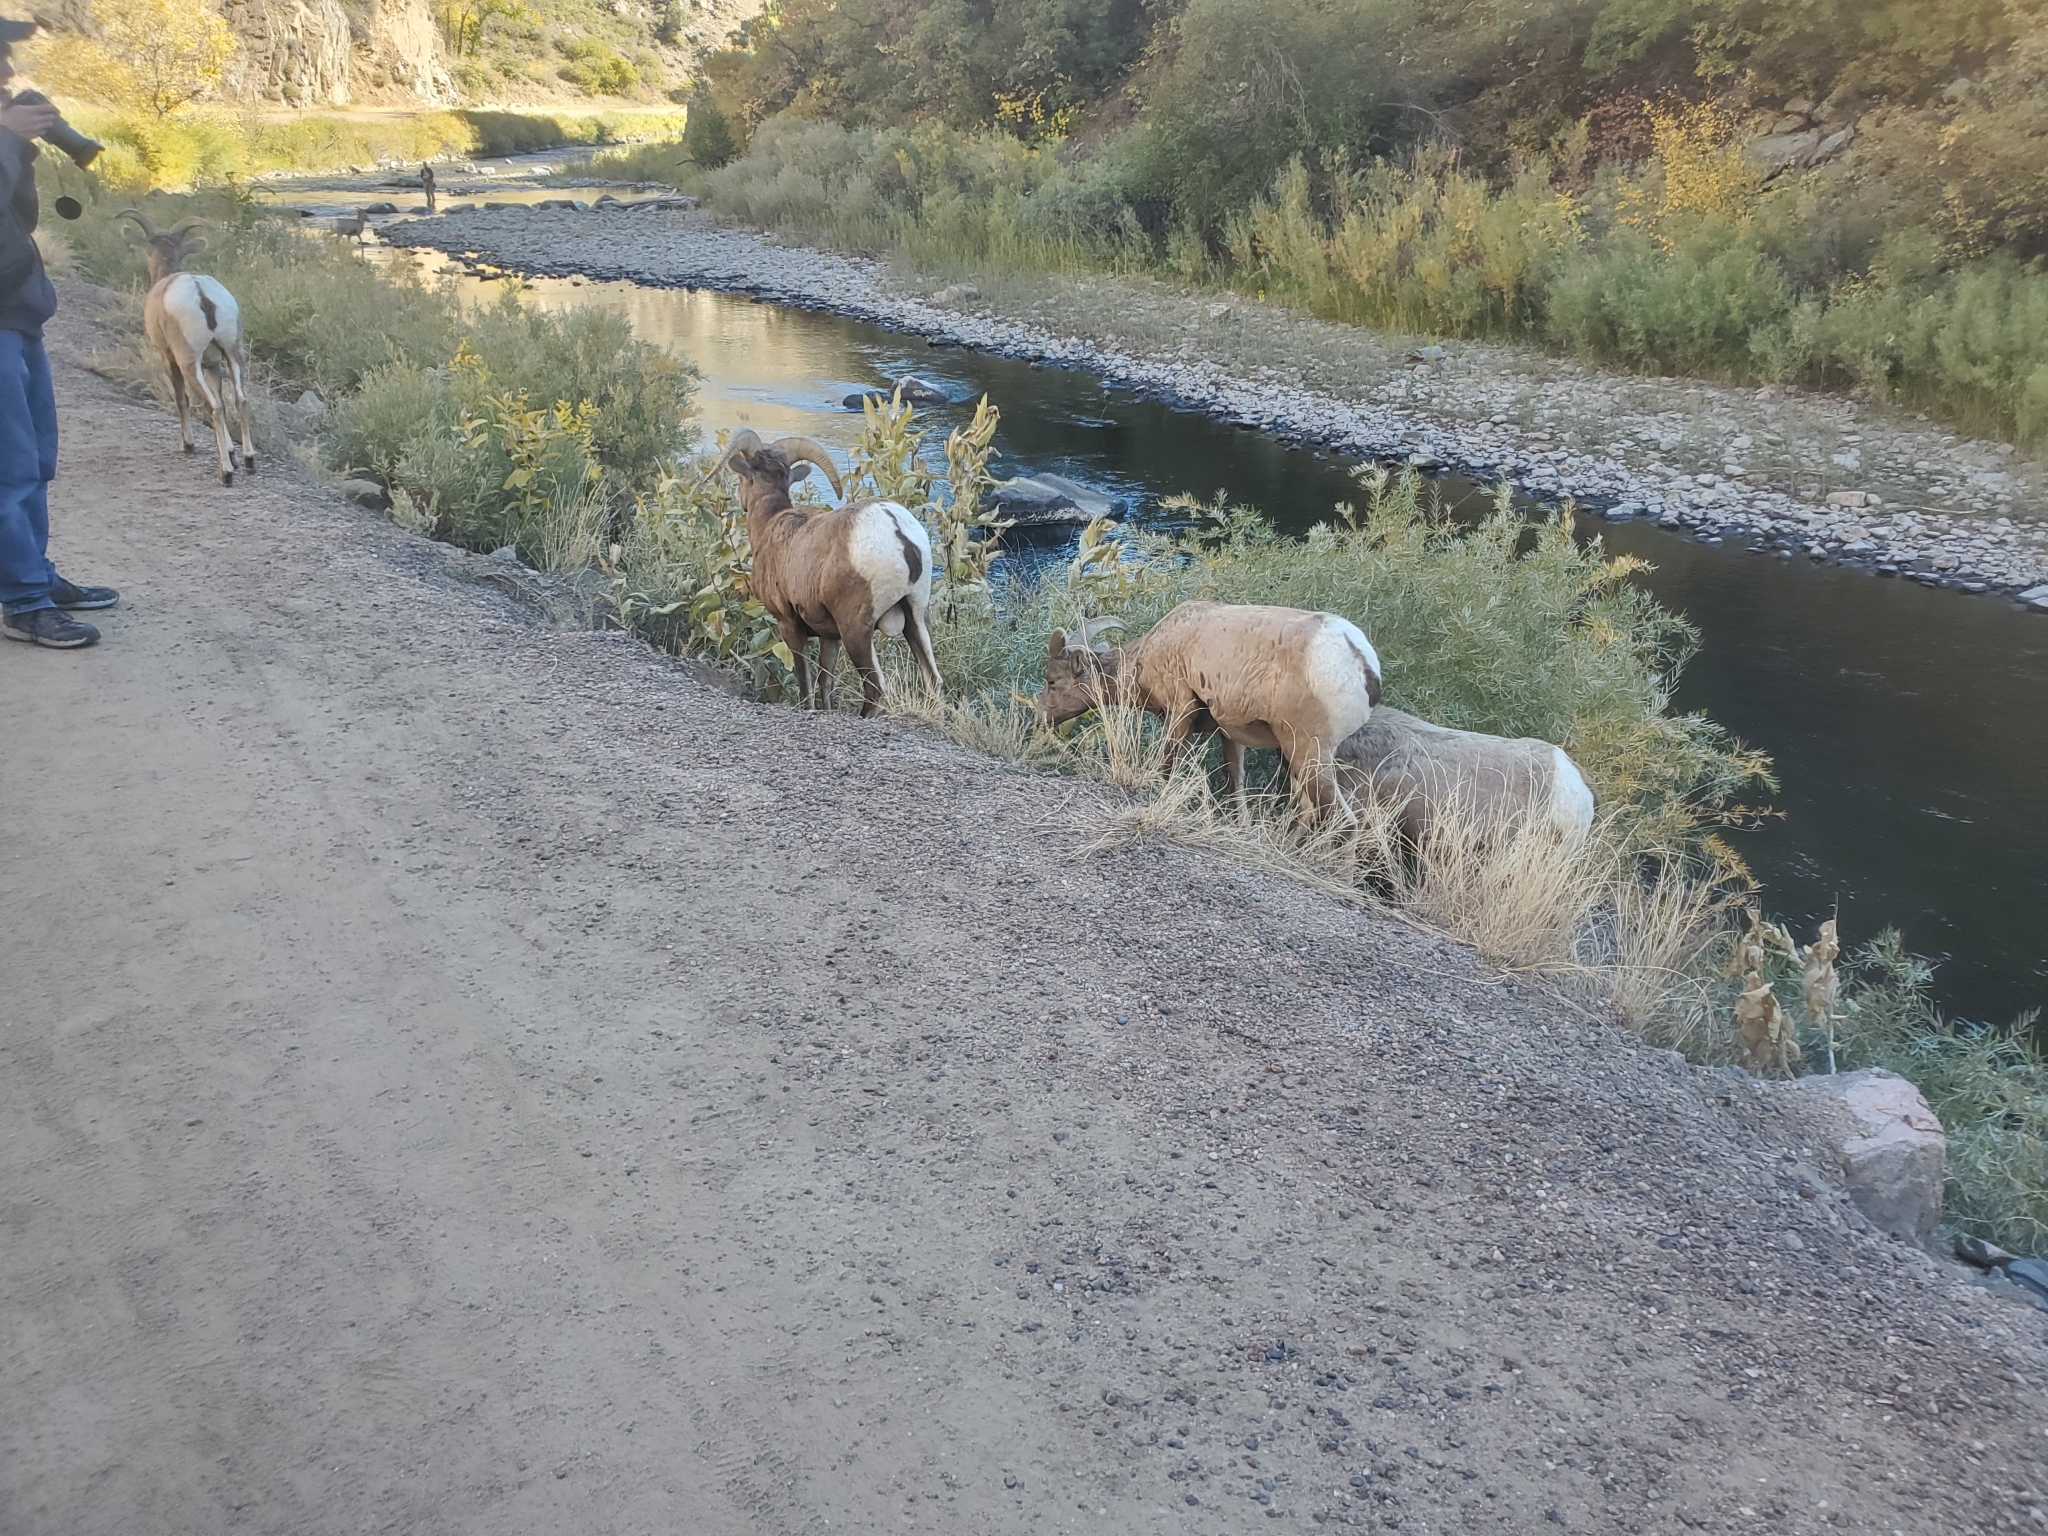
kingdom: Animalia
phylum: Chordata
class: Mammalia
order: Artiodactyla
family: Bovidae
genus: Ovis
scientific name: Ovis canadensis
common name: Bighorn sheep
